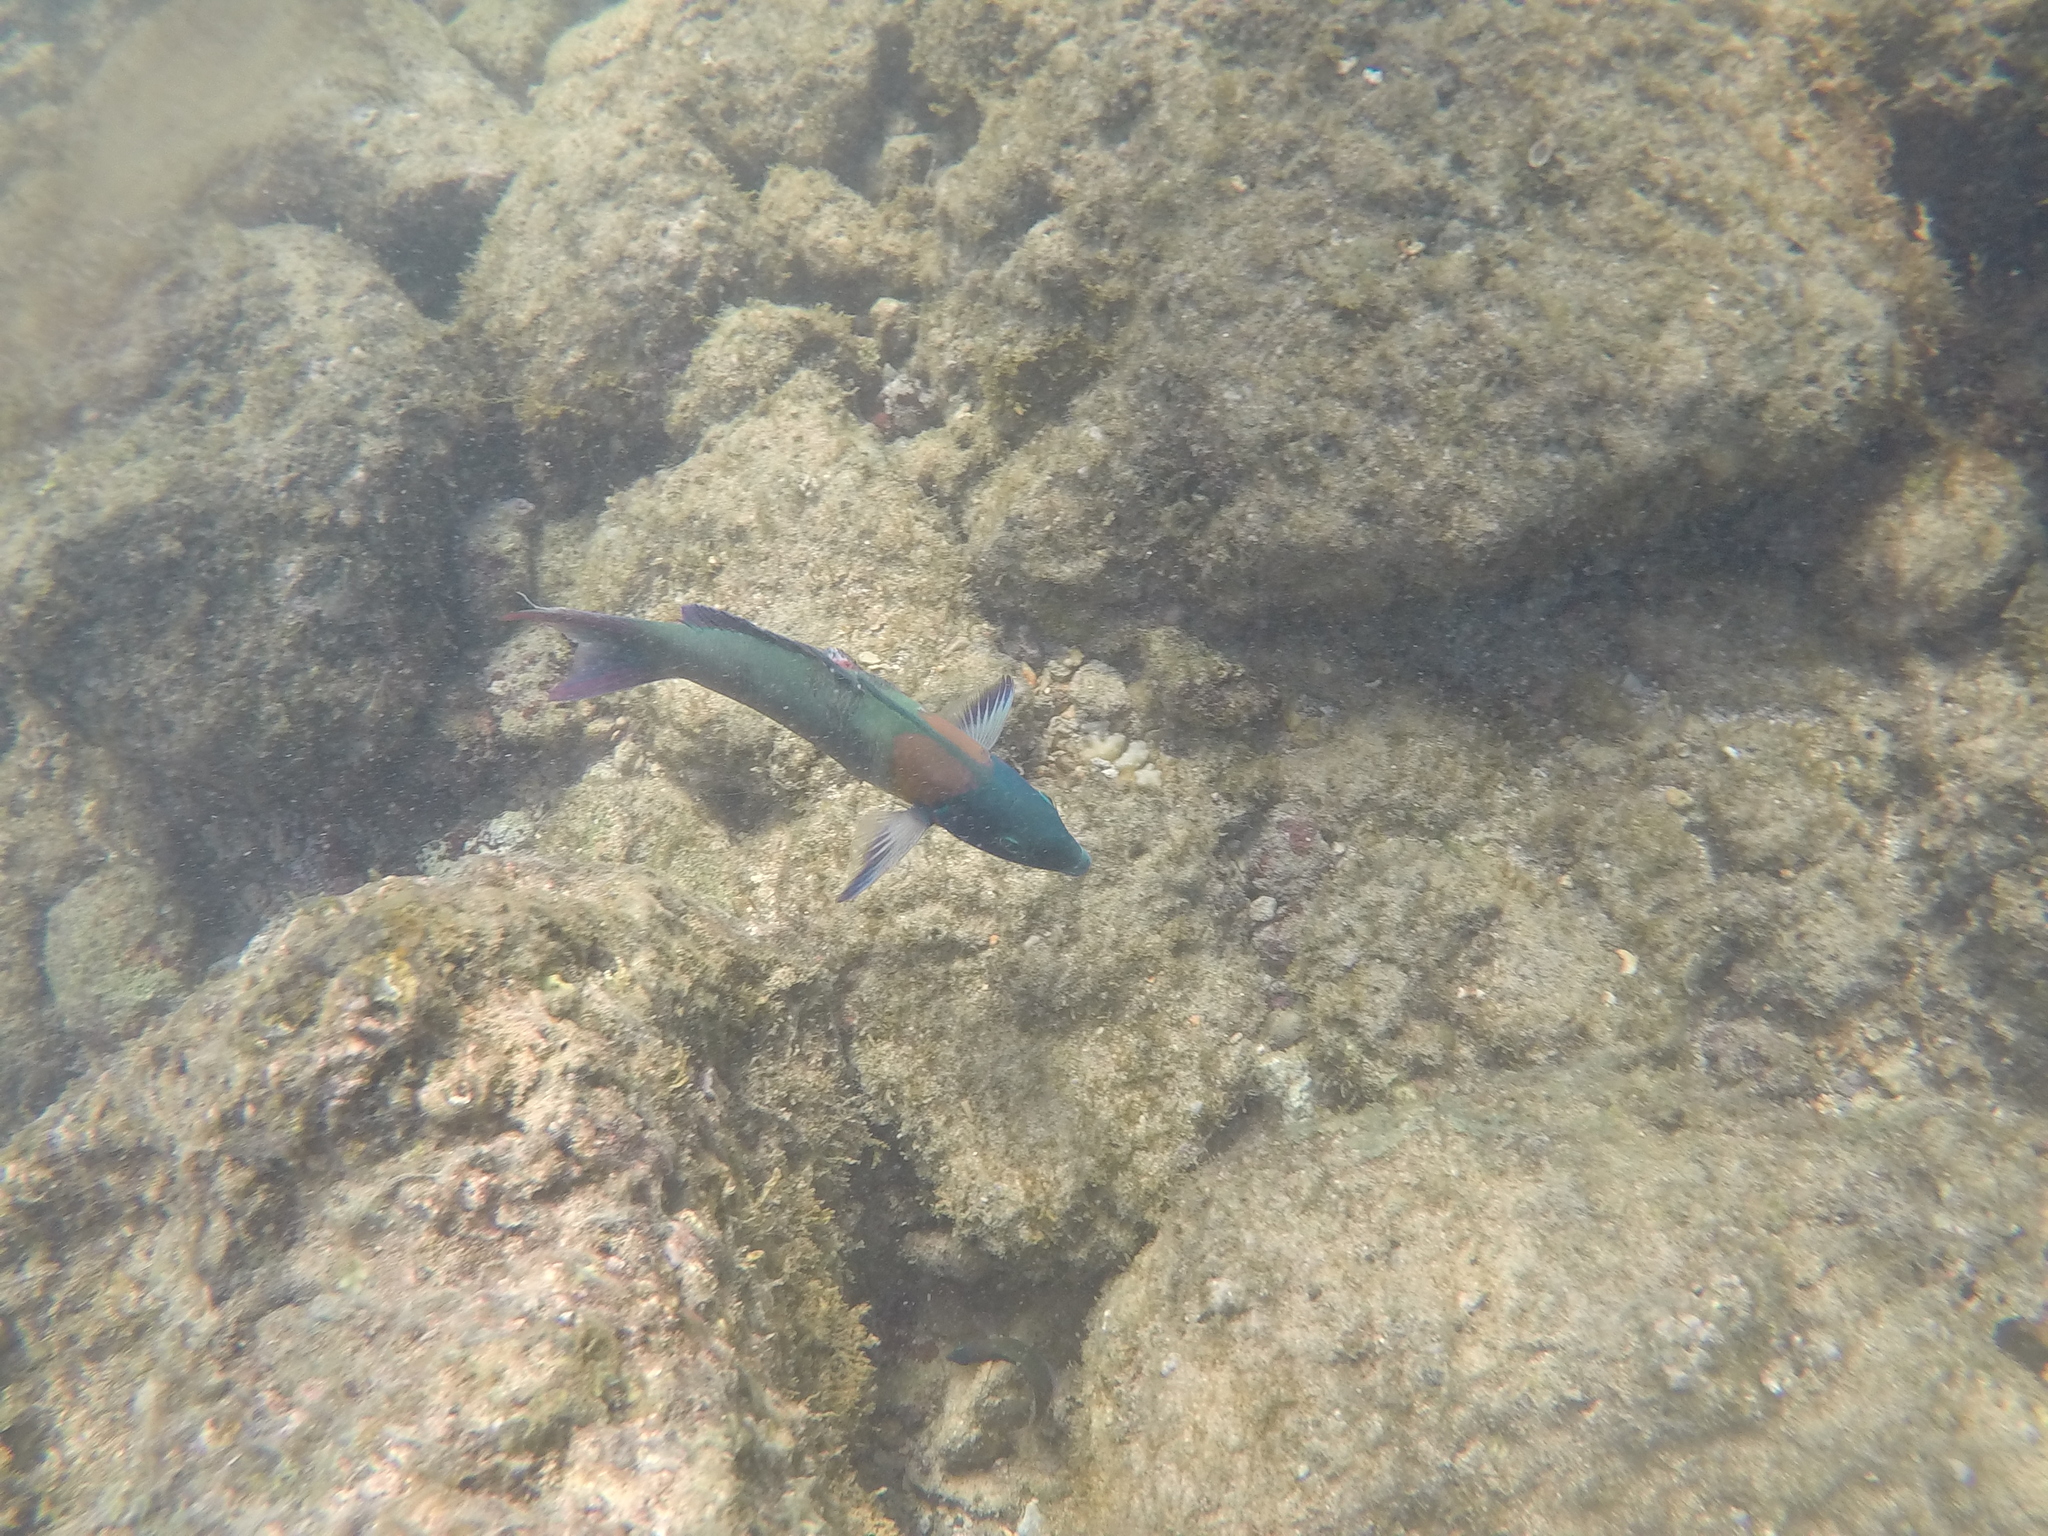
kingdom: Animalia
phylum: Chordata
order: Perciformes
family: Labridae
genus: Thalassoma
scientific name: Thalassoma duperrey
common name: Saddle wrasse
